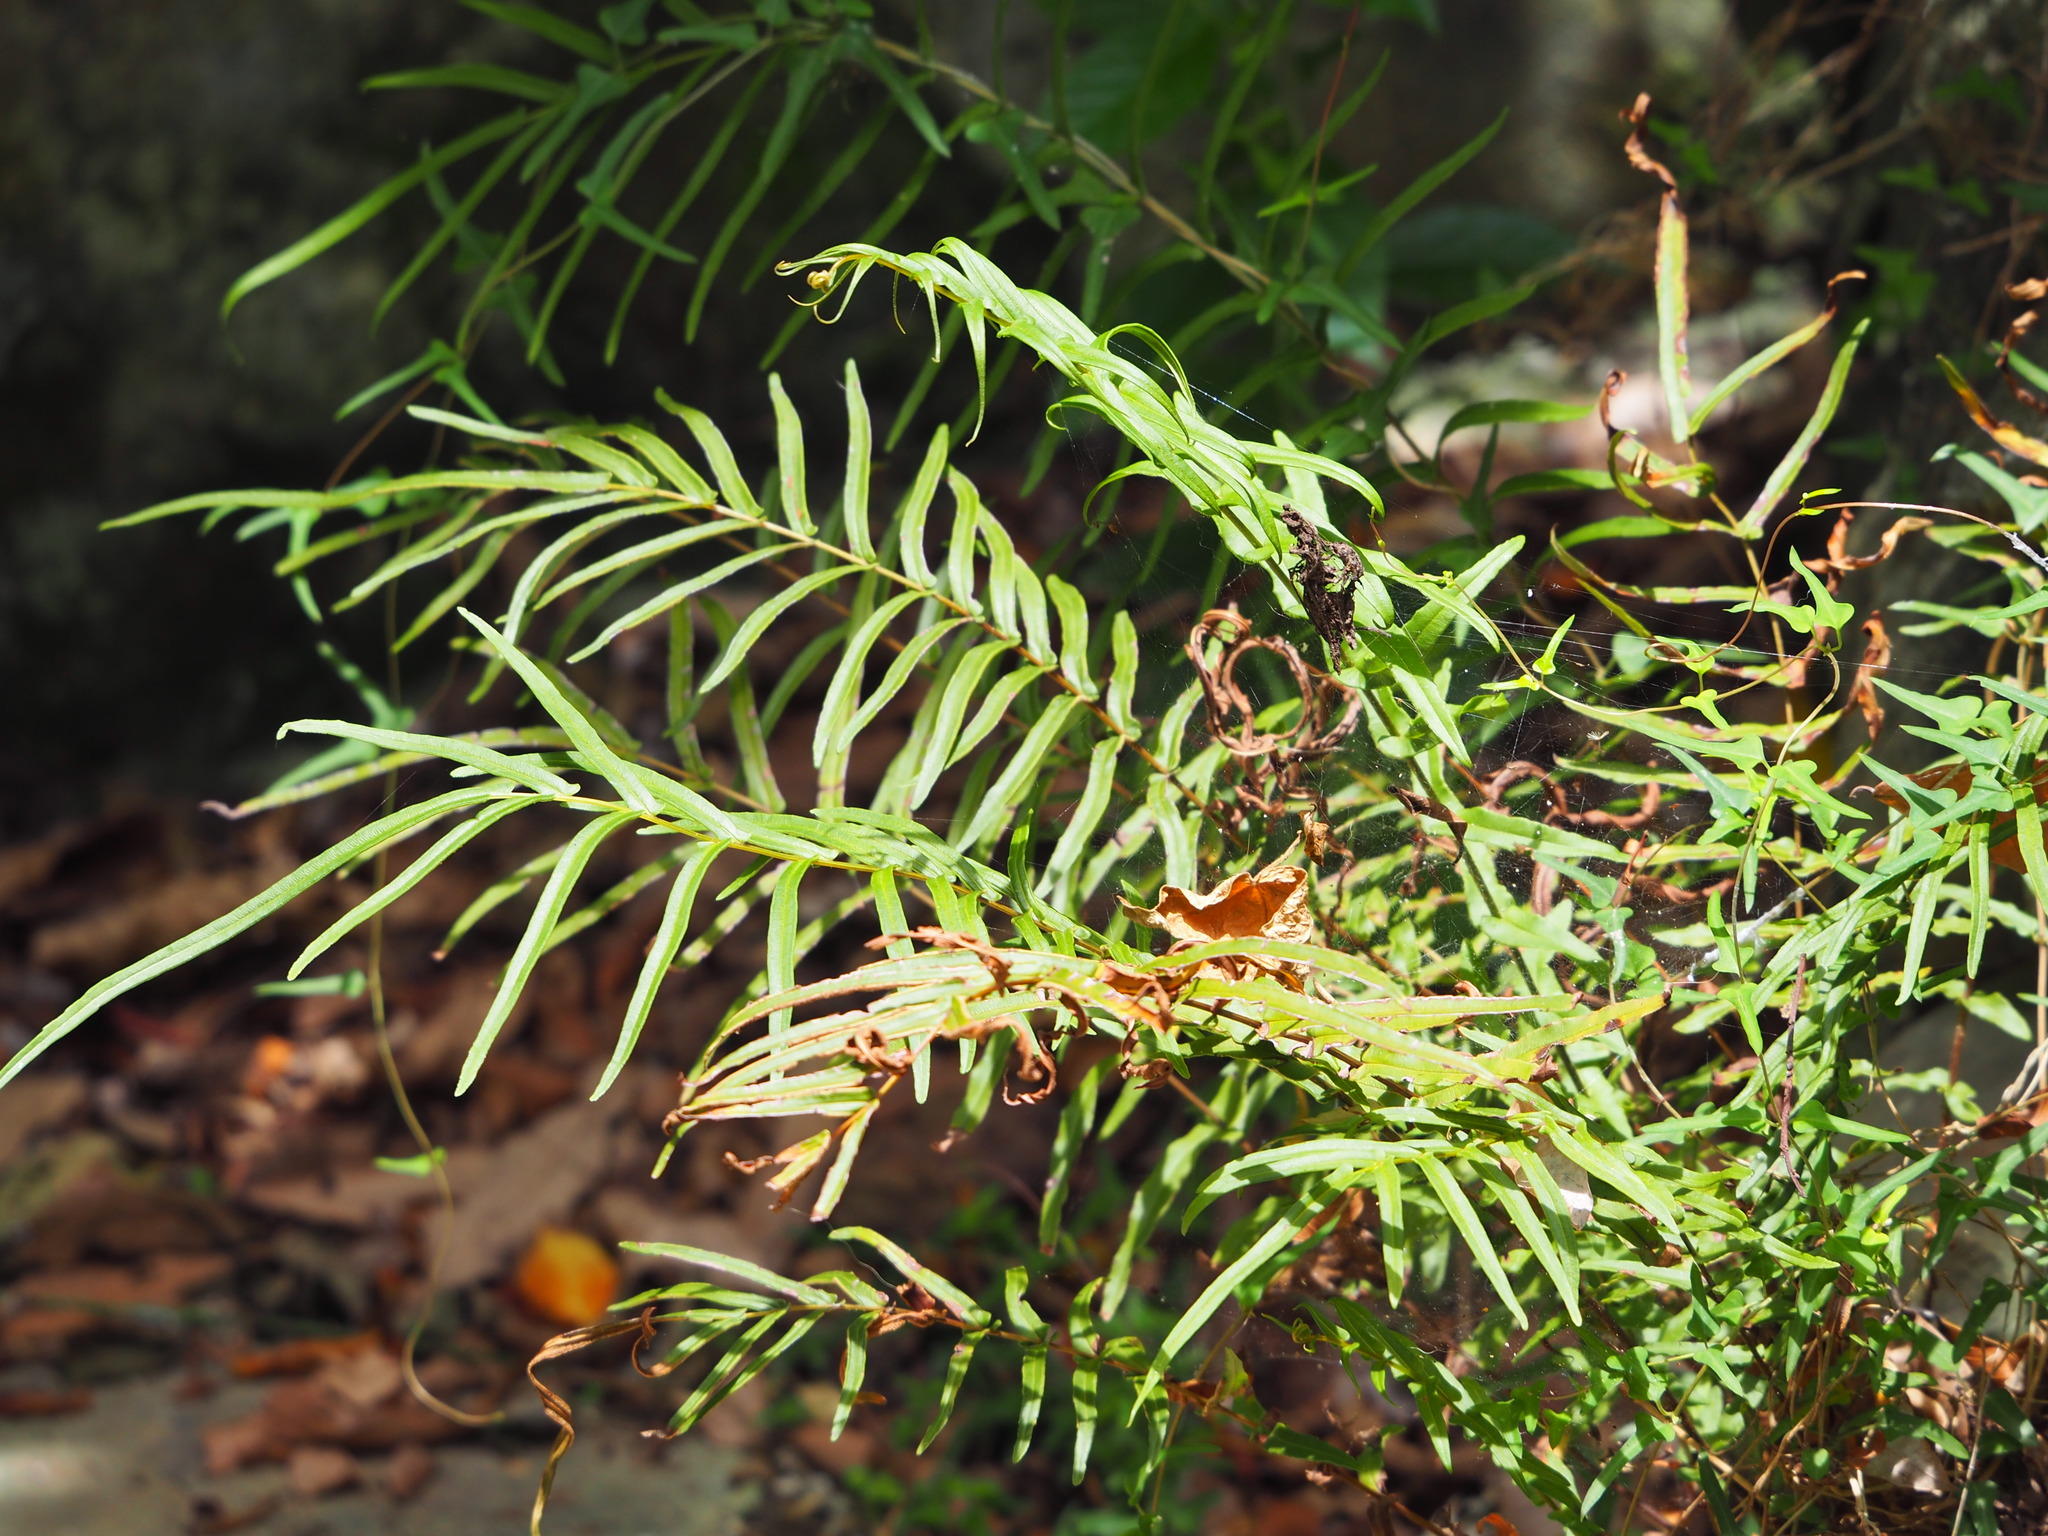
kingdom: Plantae
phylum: Tracheophyta
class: Polypodiopsida
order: Polypodiales
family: Pteridaceae
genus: Pteris
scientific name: Pteris vittata
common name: Ladder brake
